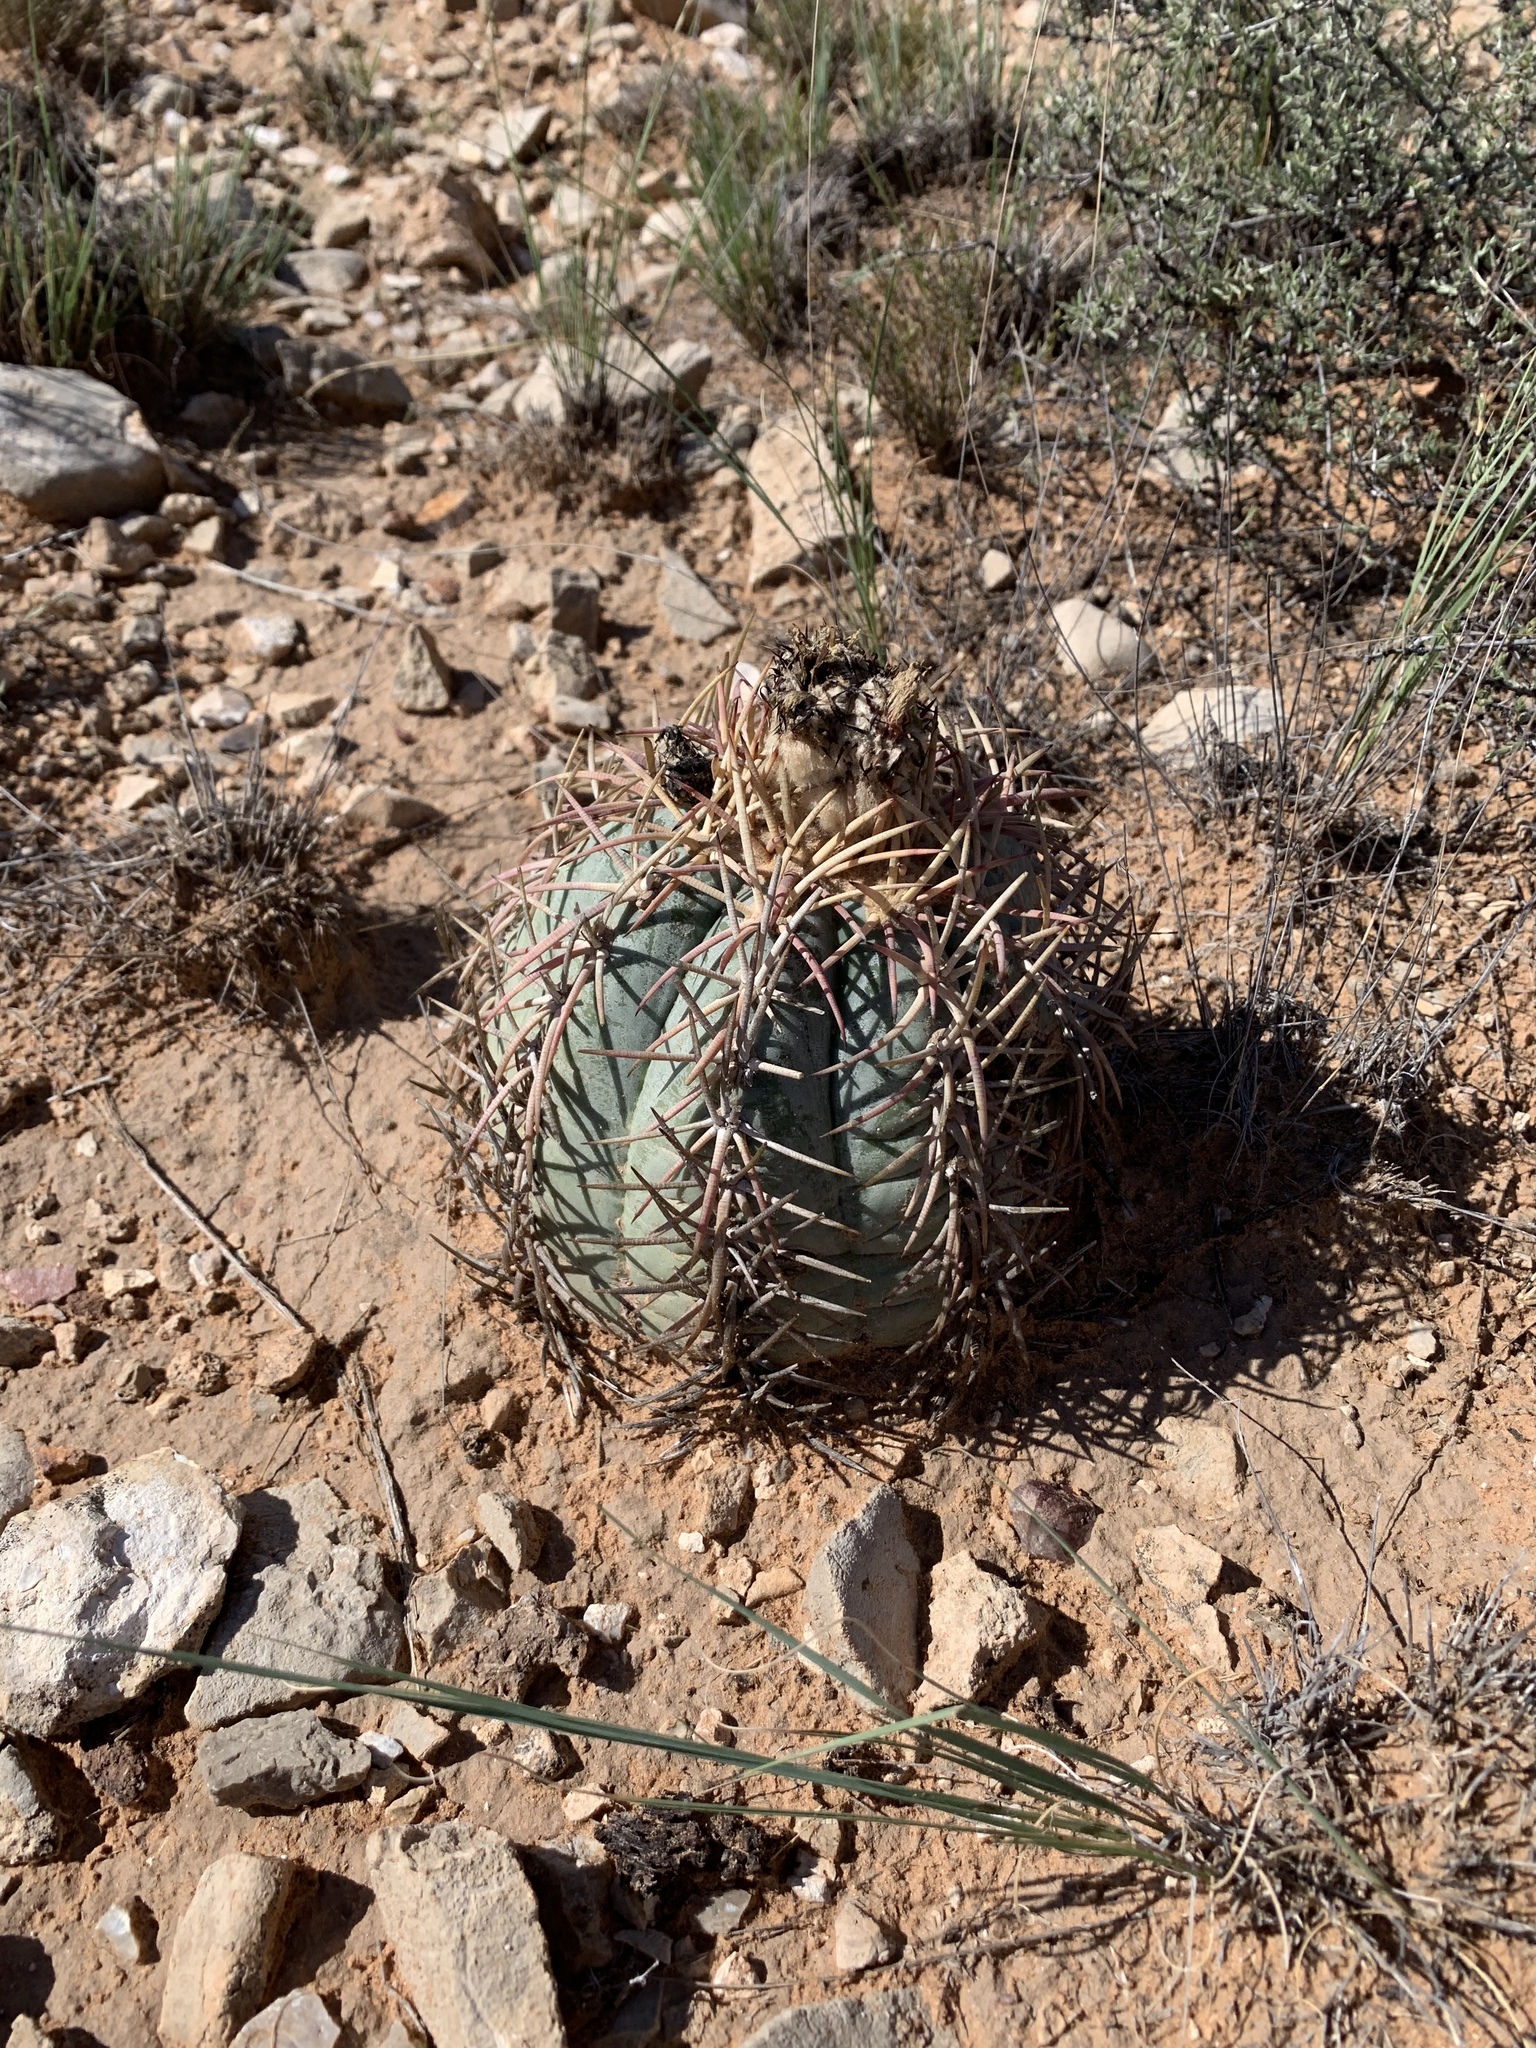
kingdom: Plantae
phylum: Tracheophyta
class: Magnoliopsida
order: Caryophyllales
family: Cactaceae
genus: Echinocactus
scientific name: Echinocactus horizonthalonius
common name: Devilshead
